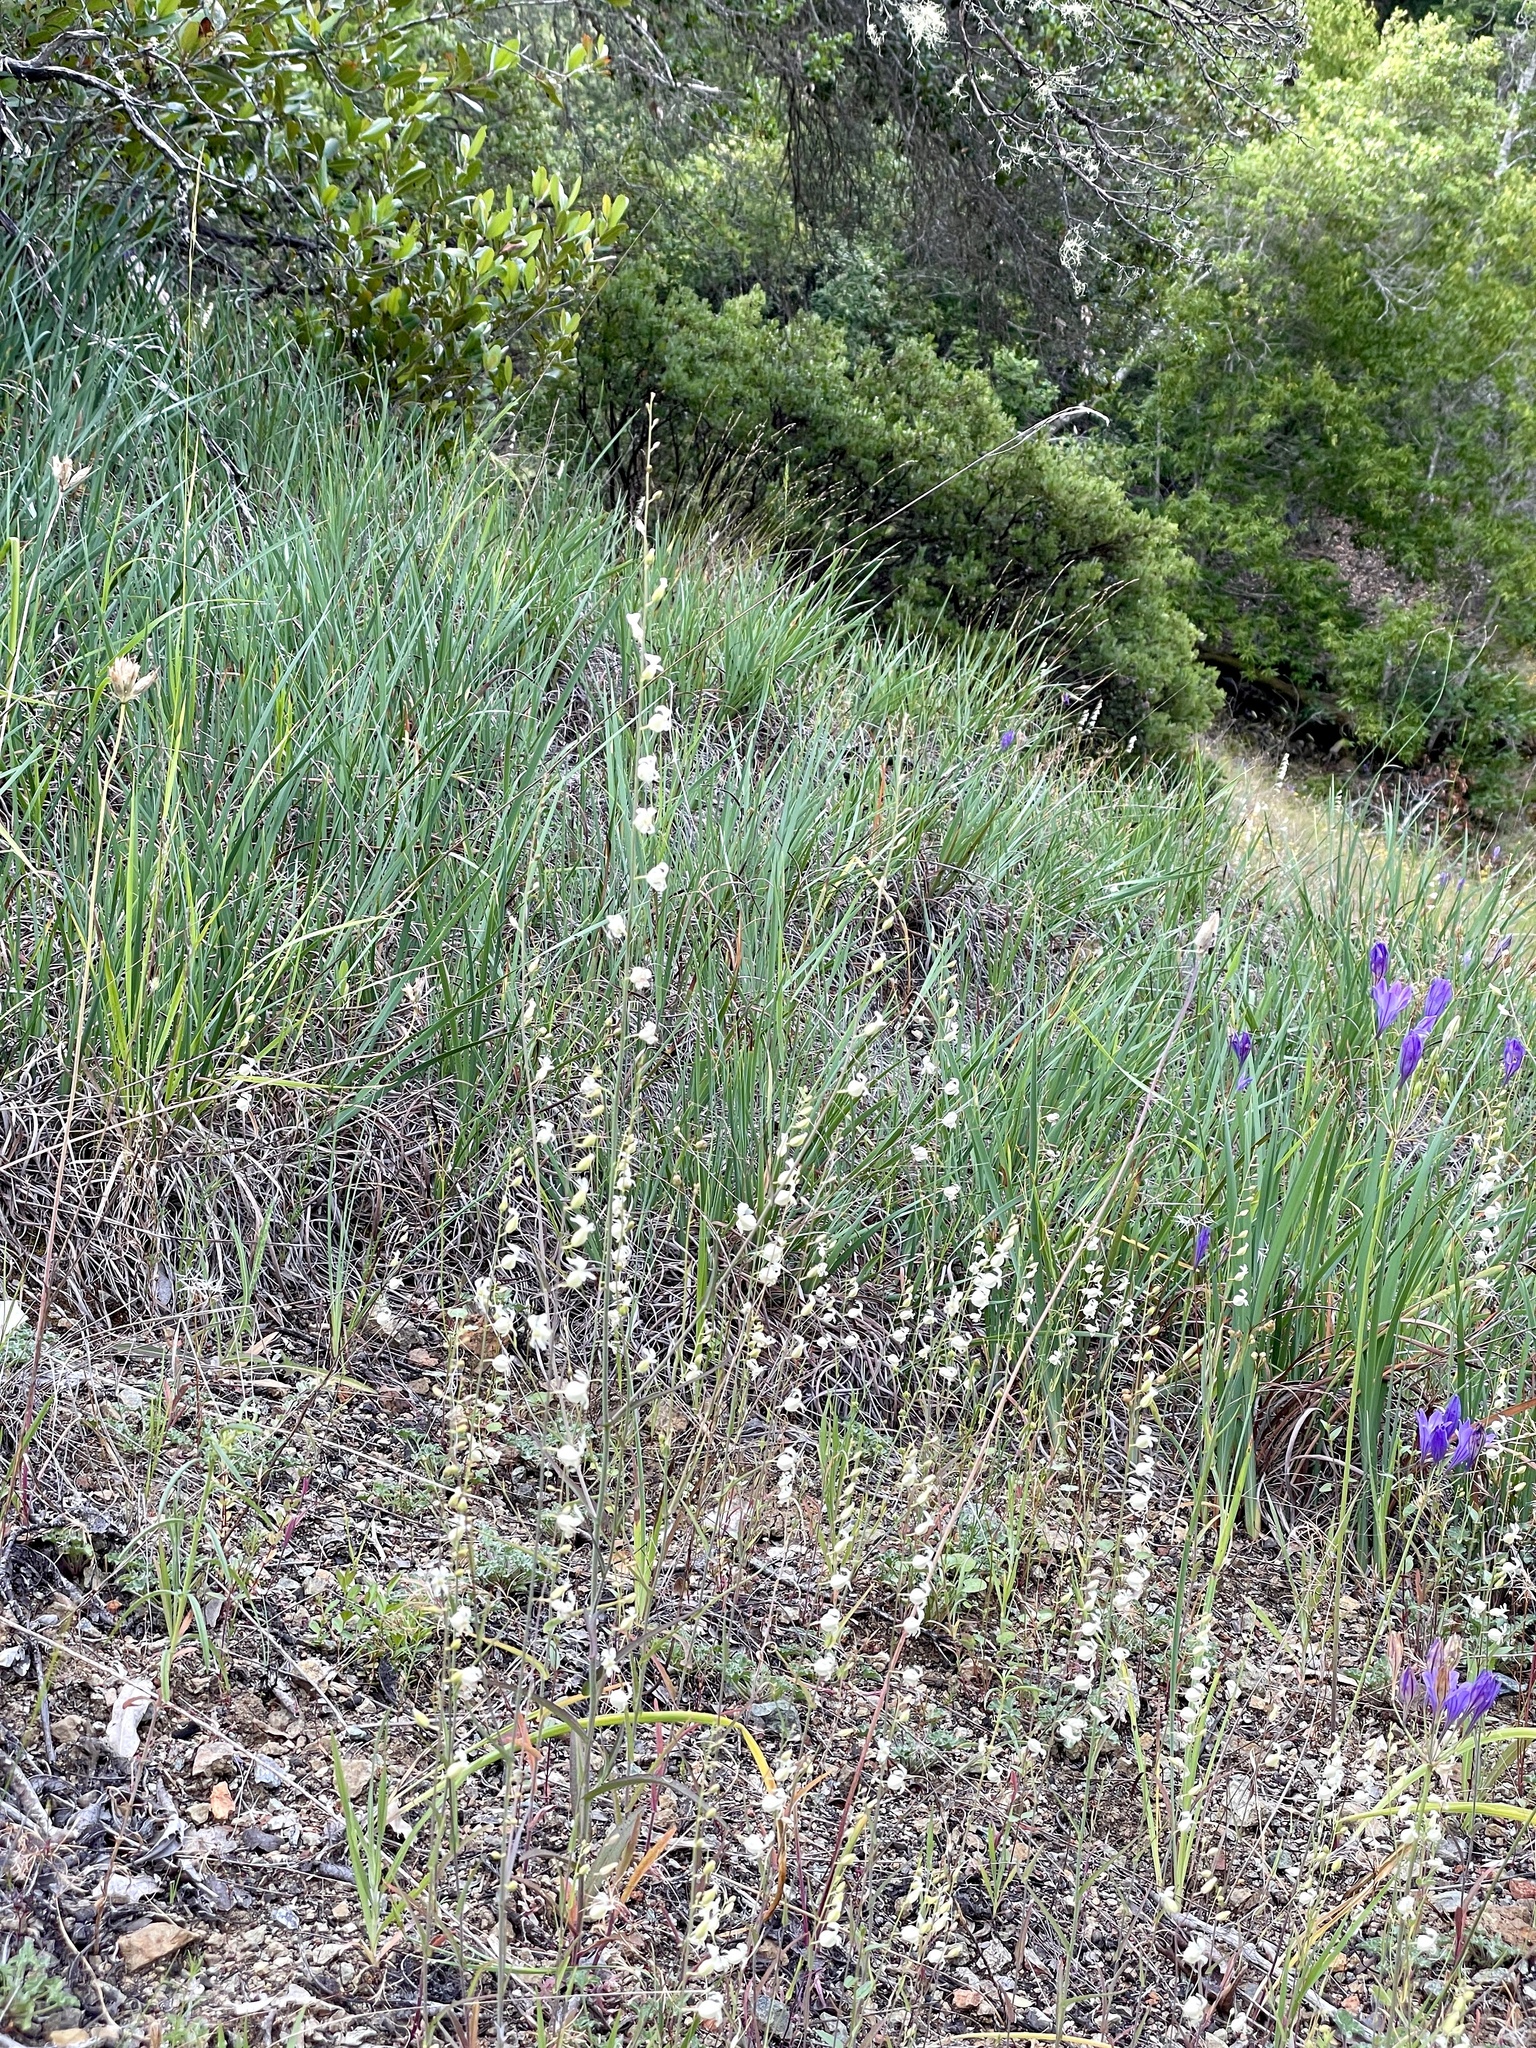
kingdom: Plantae
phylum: Tracheophyta
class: Magnoliopsida
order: Brassicales
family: Brassicaceae
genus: Streptanthus
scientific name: Streptanthus glandulosus
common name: Jewel-flower
